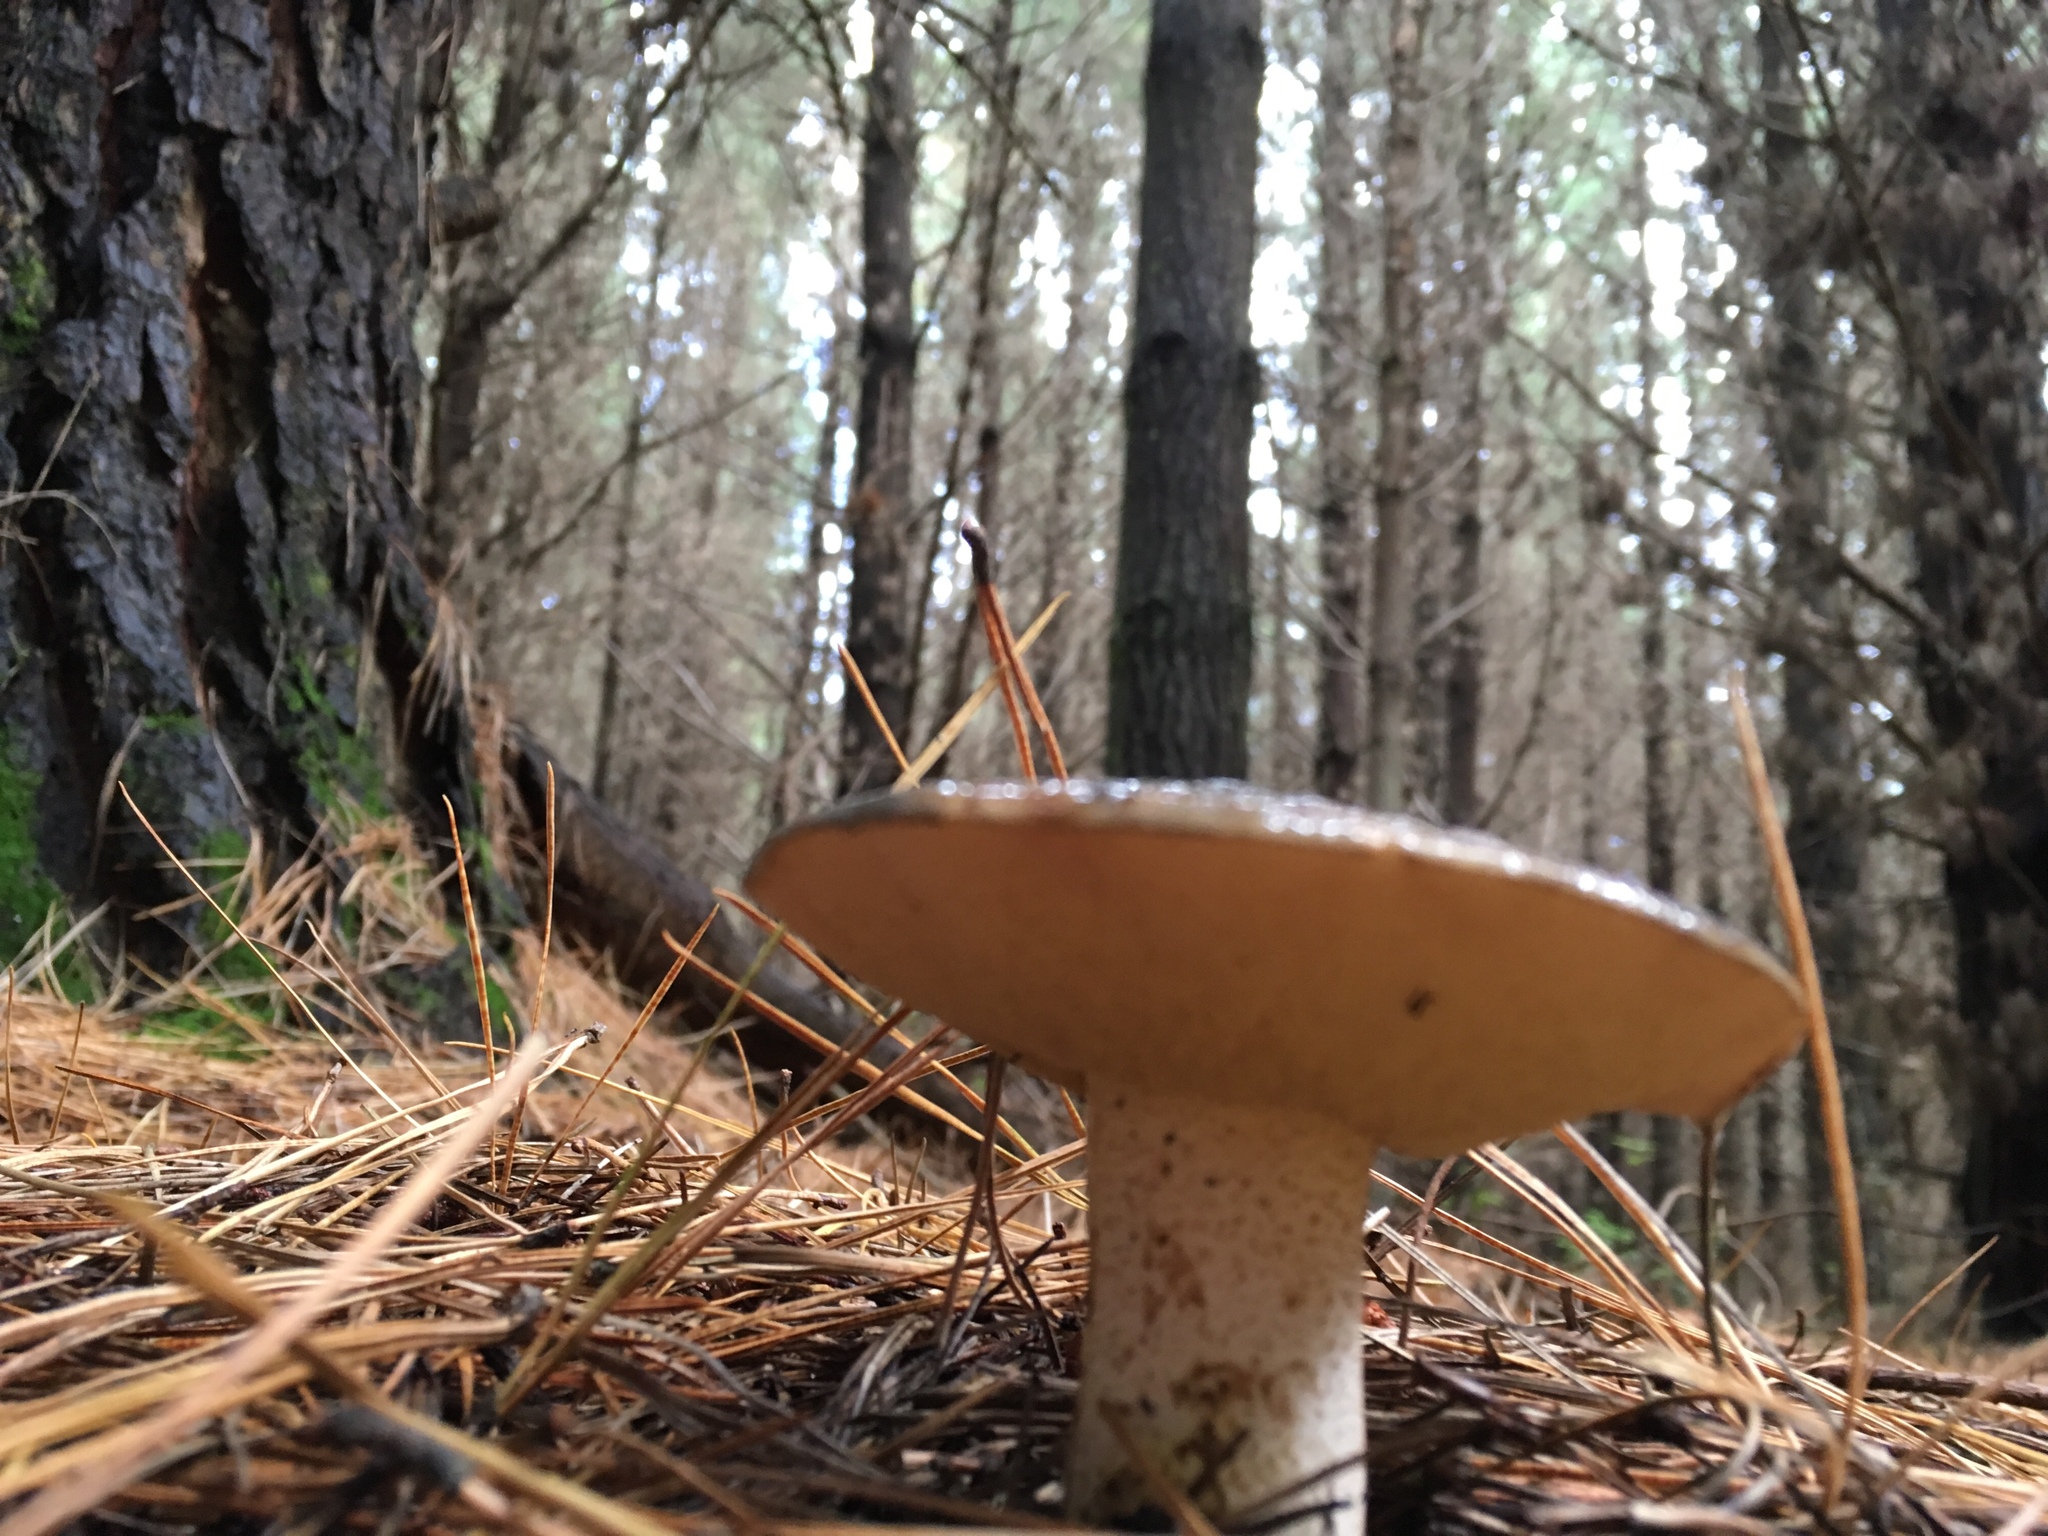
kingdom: Fungi
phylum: Basidiomycota
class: Agaricomycetes
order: Boletales
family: Suillaceae
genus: Suillus
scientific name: Suillus pungens
